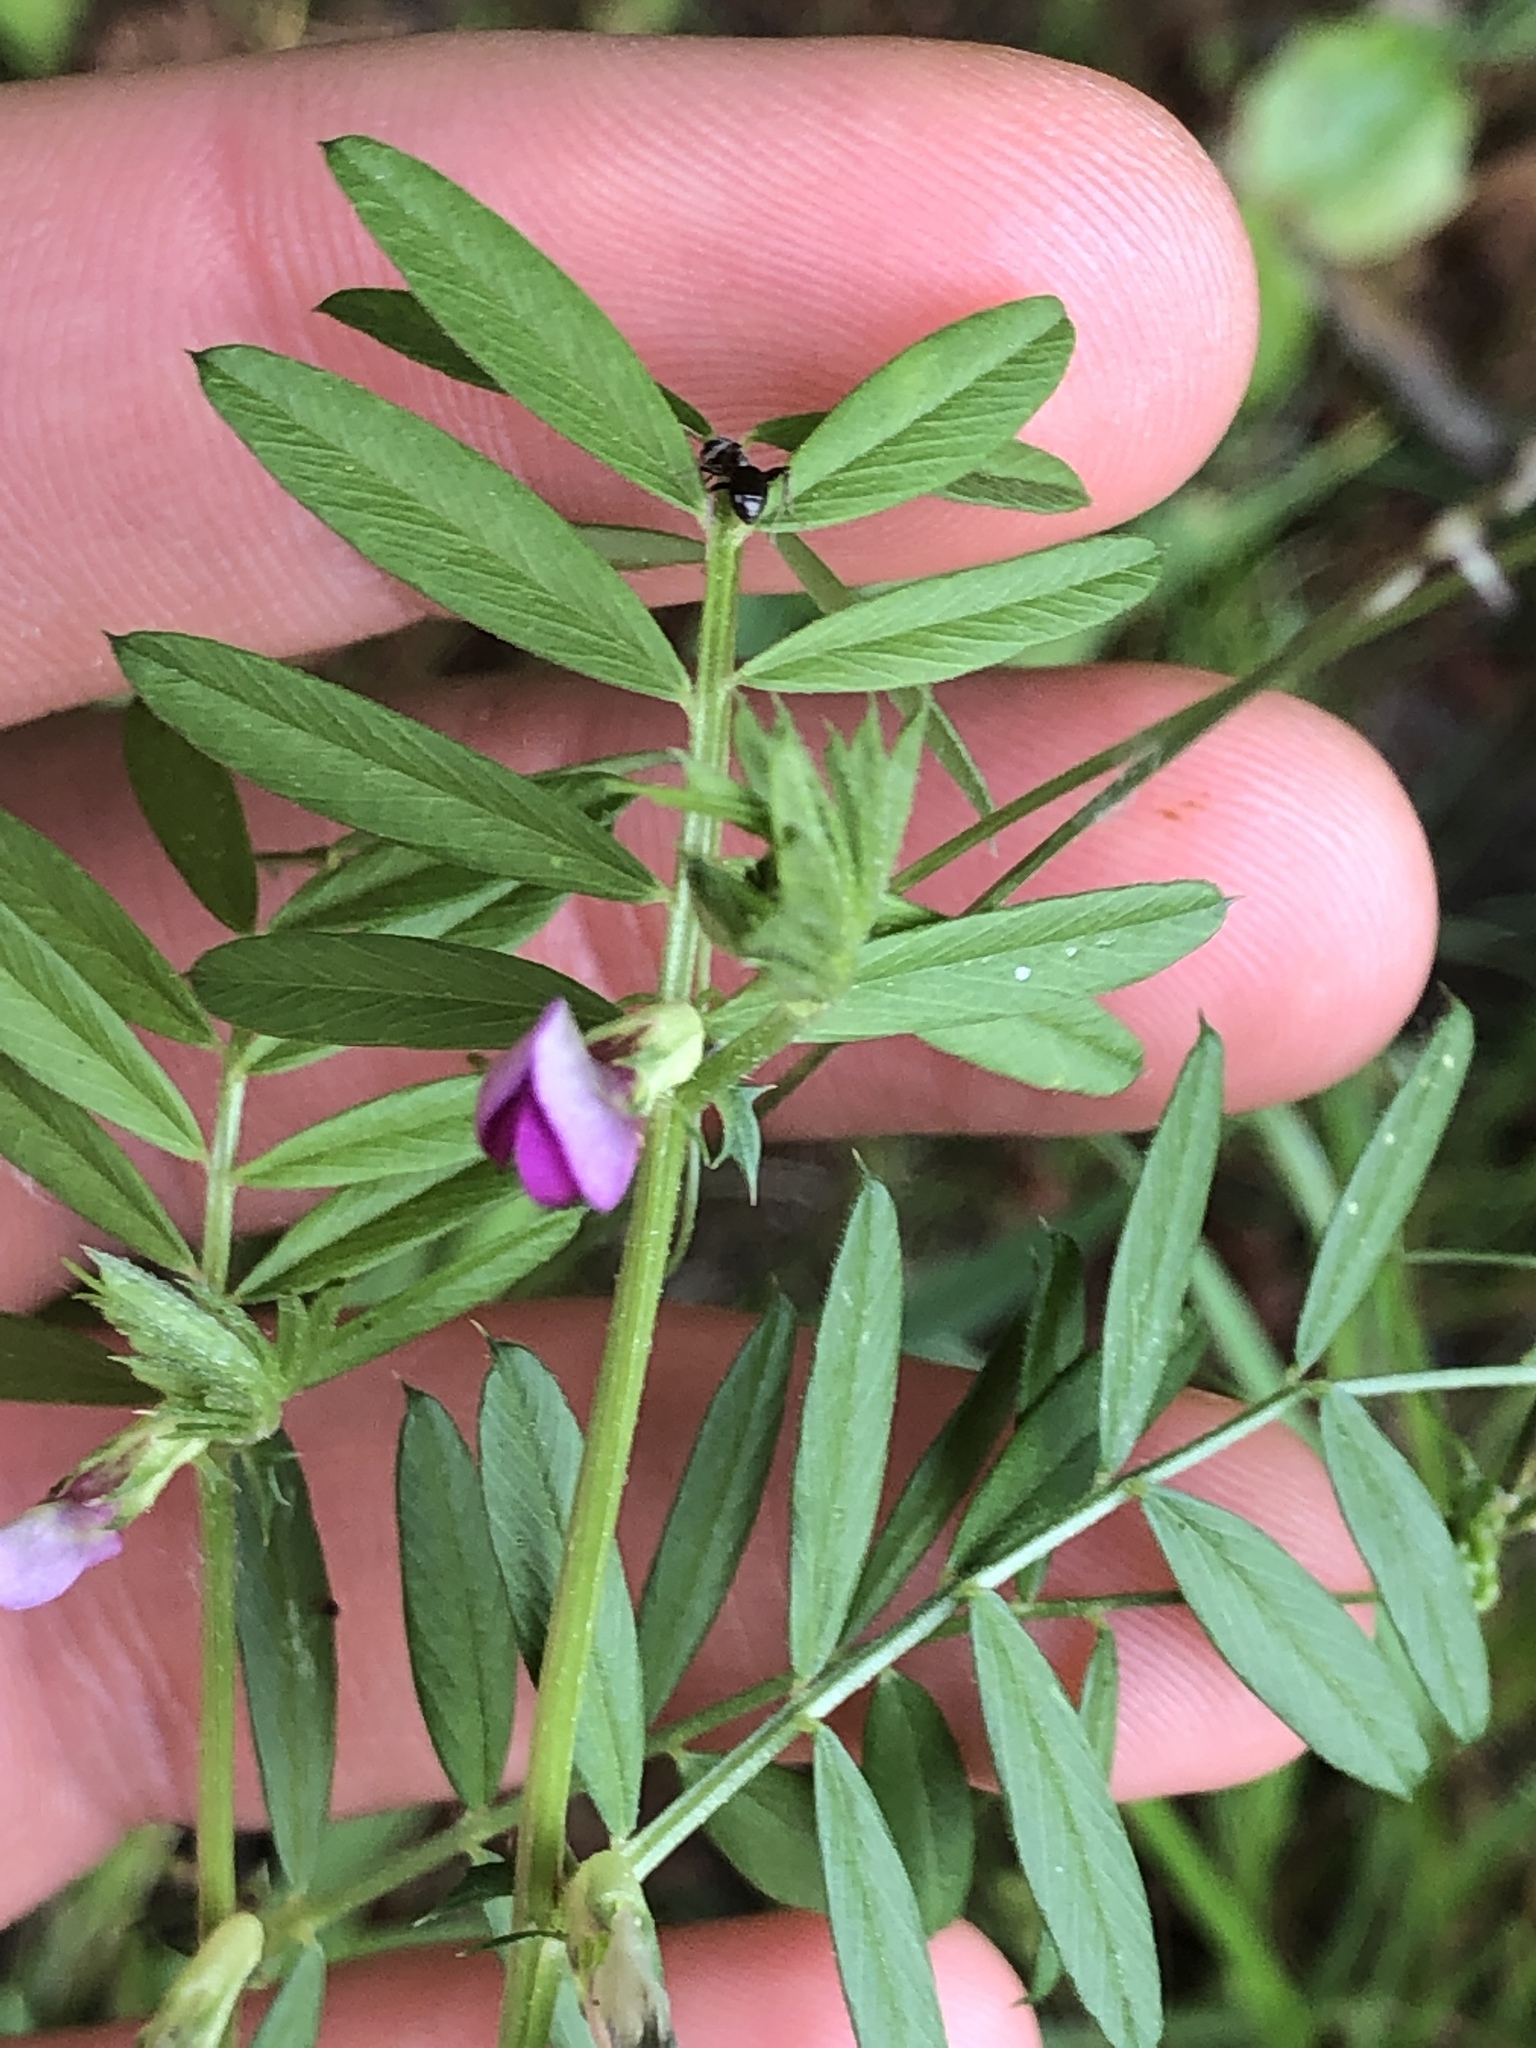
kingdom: Plantae
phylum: Tracheophyta
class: Magnoliopsida
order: Fabales
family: Fabaceae
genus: Vicia
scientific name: Vicia sativa
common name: Garden vetch
